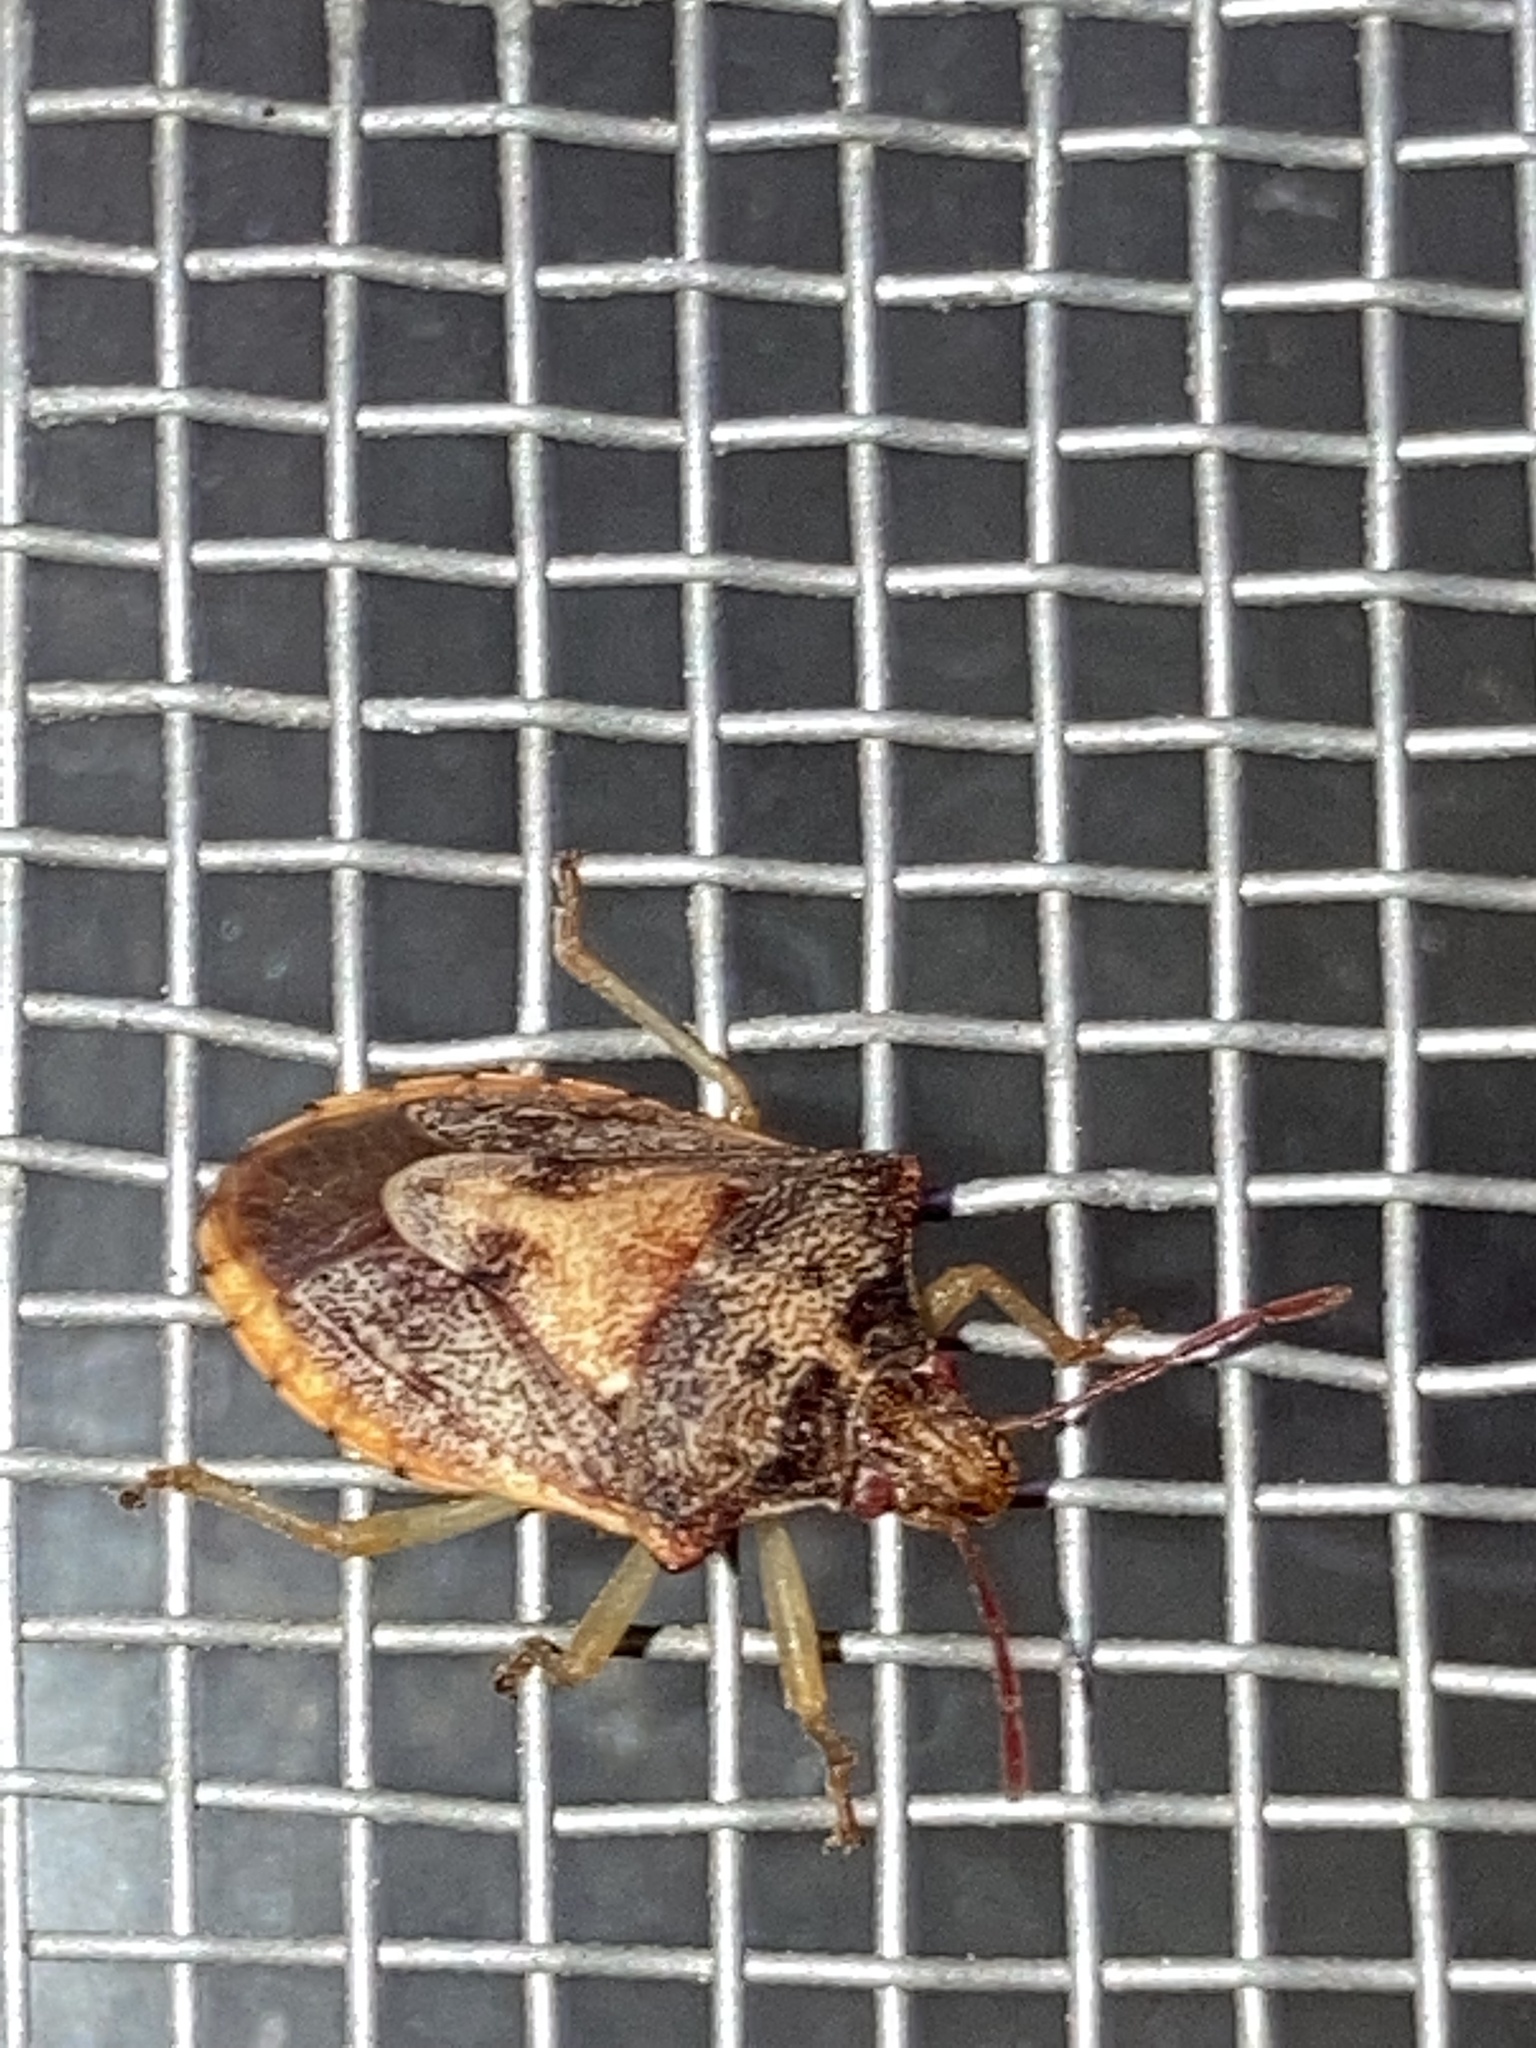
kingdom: Animalia
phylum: Arthropoda
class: Insecta
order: Hemiptera
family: Pentatomidae
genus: Dendrocoris
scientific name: Dendrocoris humeralis
